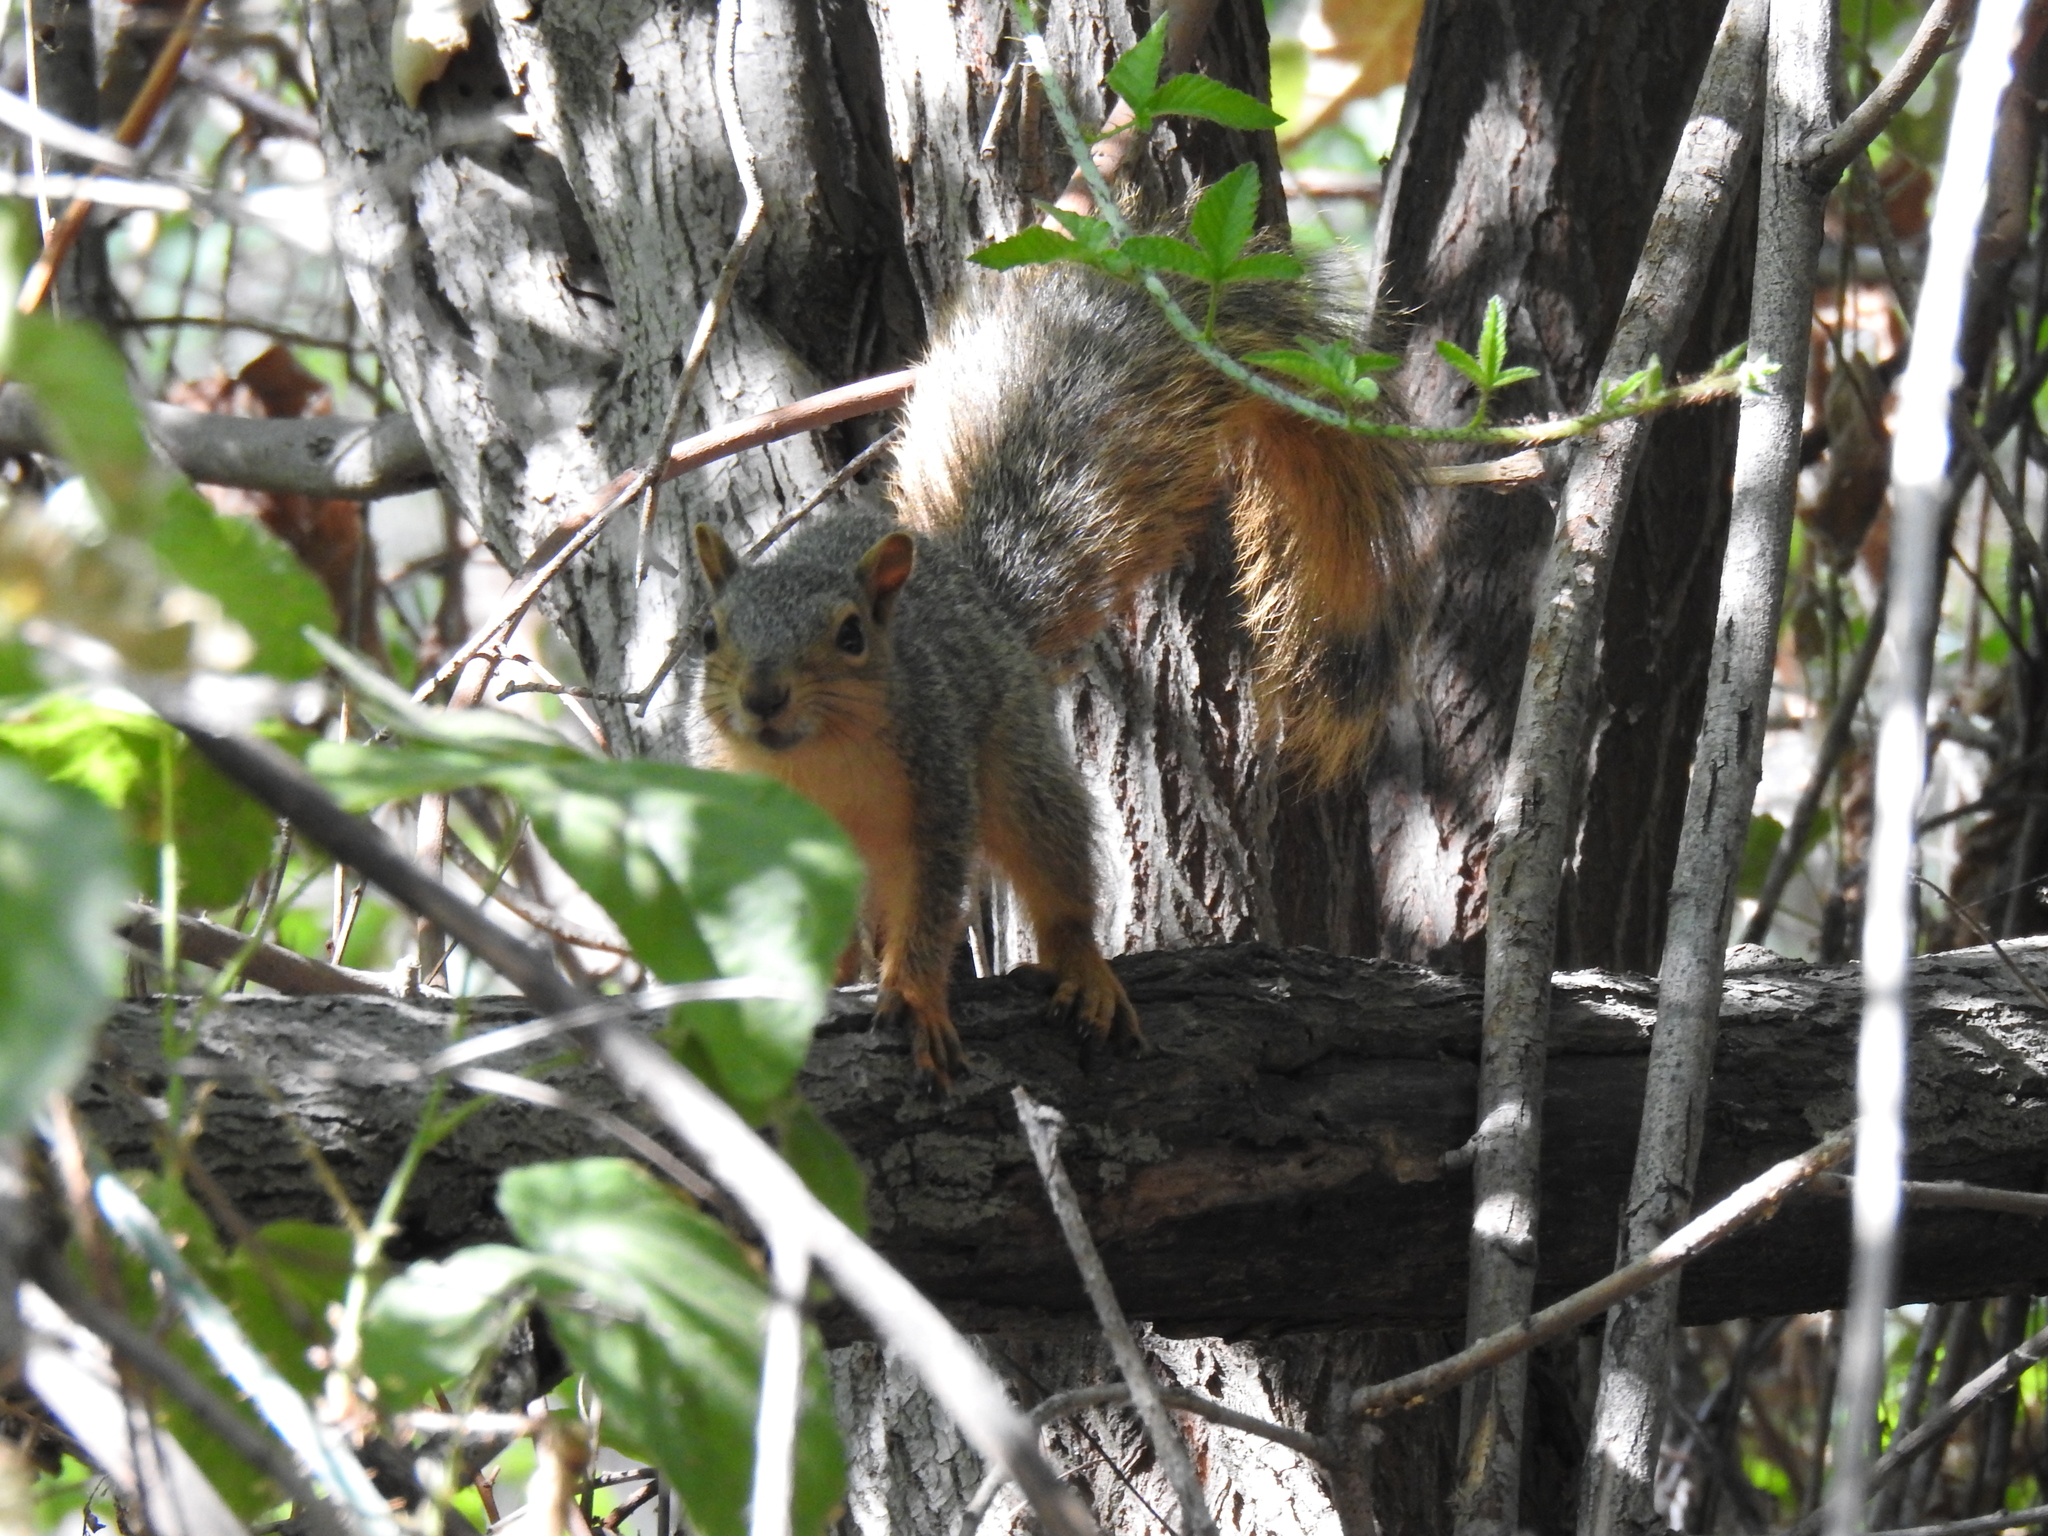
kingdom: Animalia
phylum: Chordata
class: Mammalia
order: Rodentia
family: Sciuridae
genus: Sciurus
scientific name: Sciurus niger
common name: Fox squirrel
